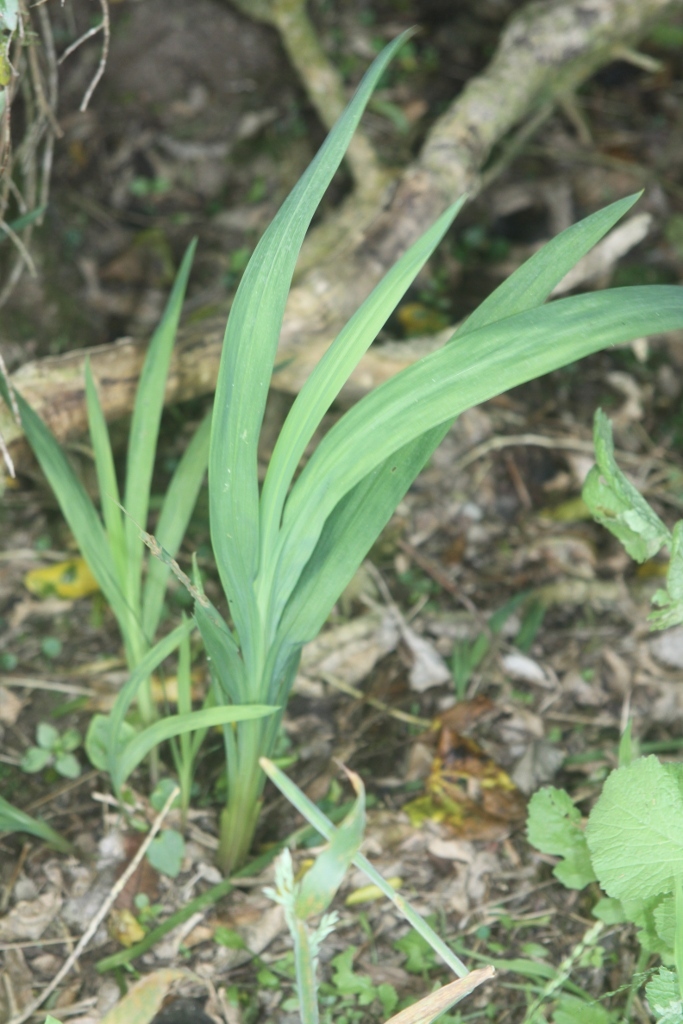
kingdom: Plantae
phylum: Tracheophyta
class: Liliopsida
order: Asparagales
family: Iridaceae
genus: Crocosmia
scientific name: Crocosmia crocosmiiflora
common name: Montbretia
